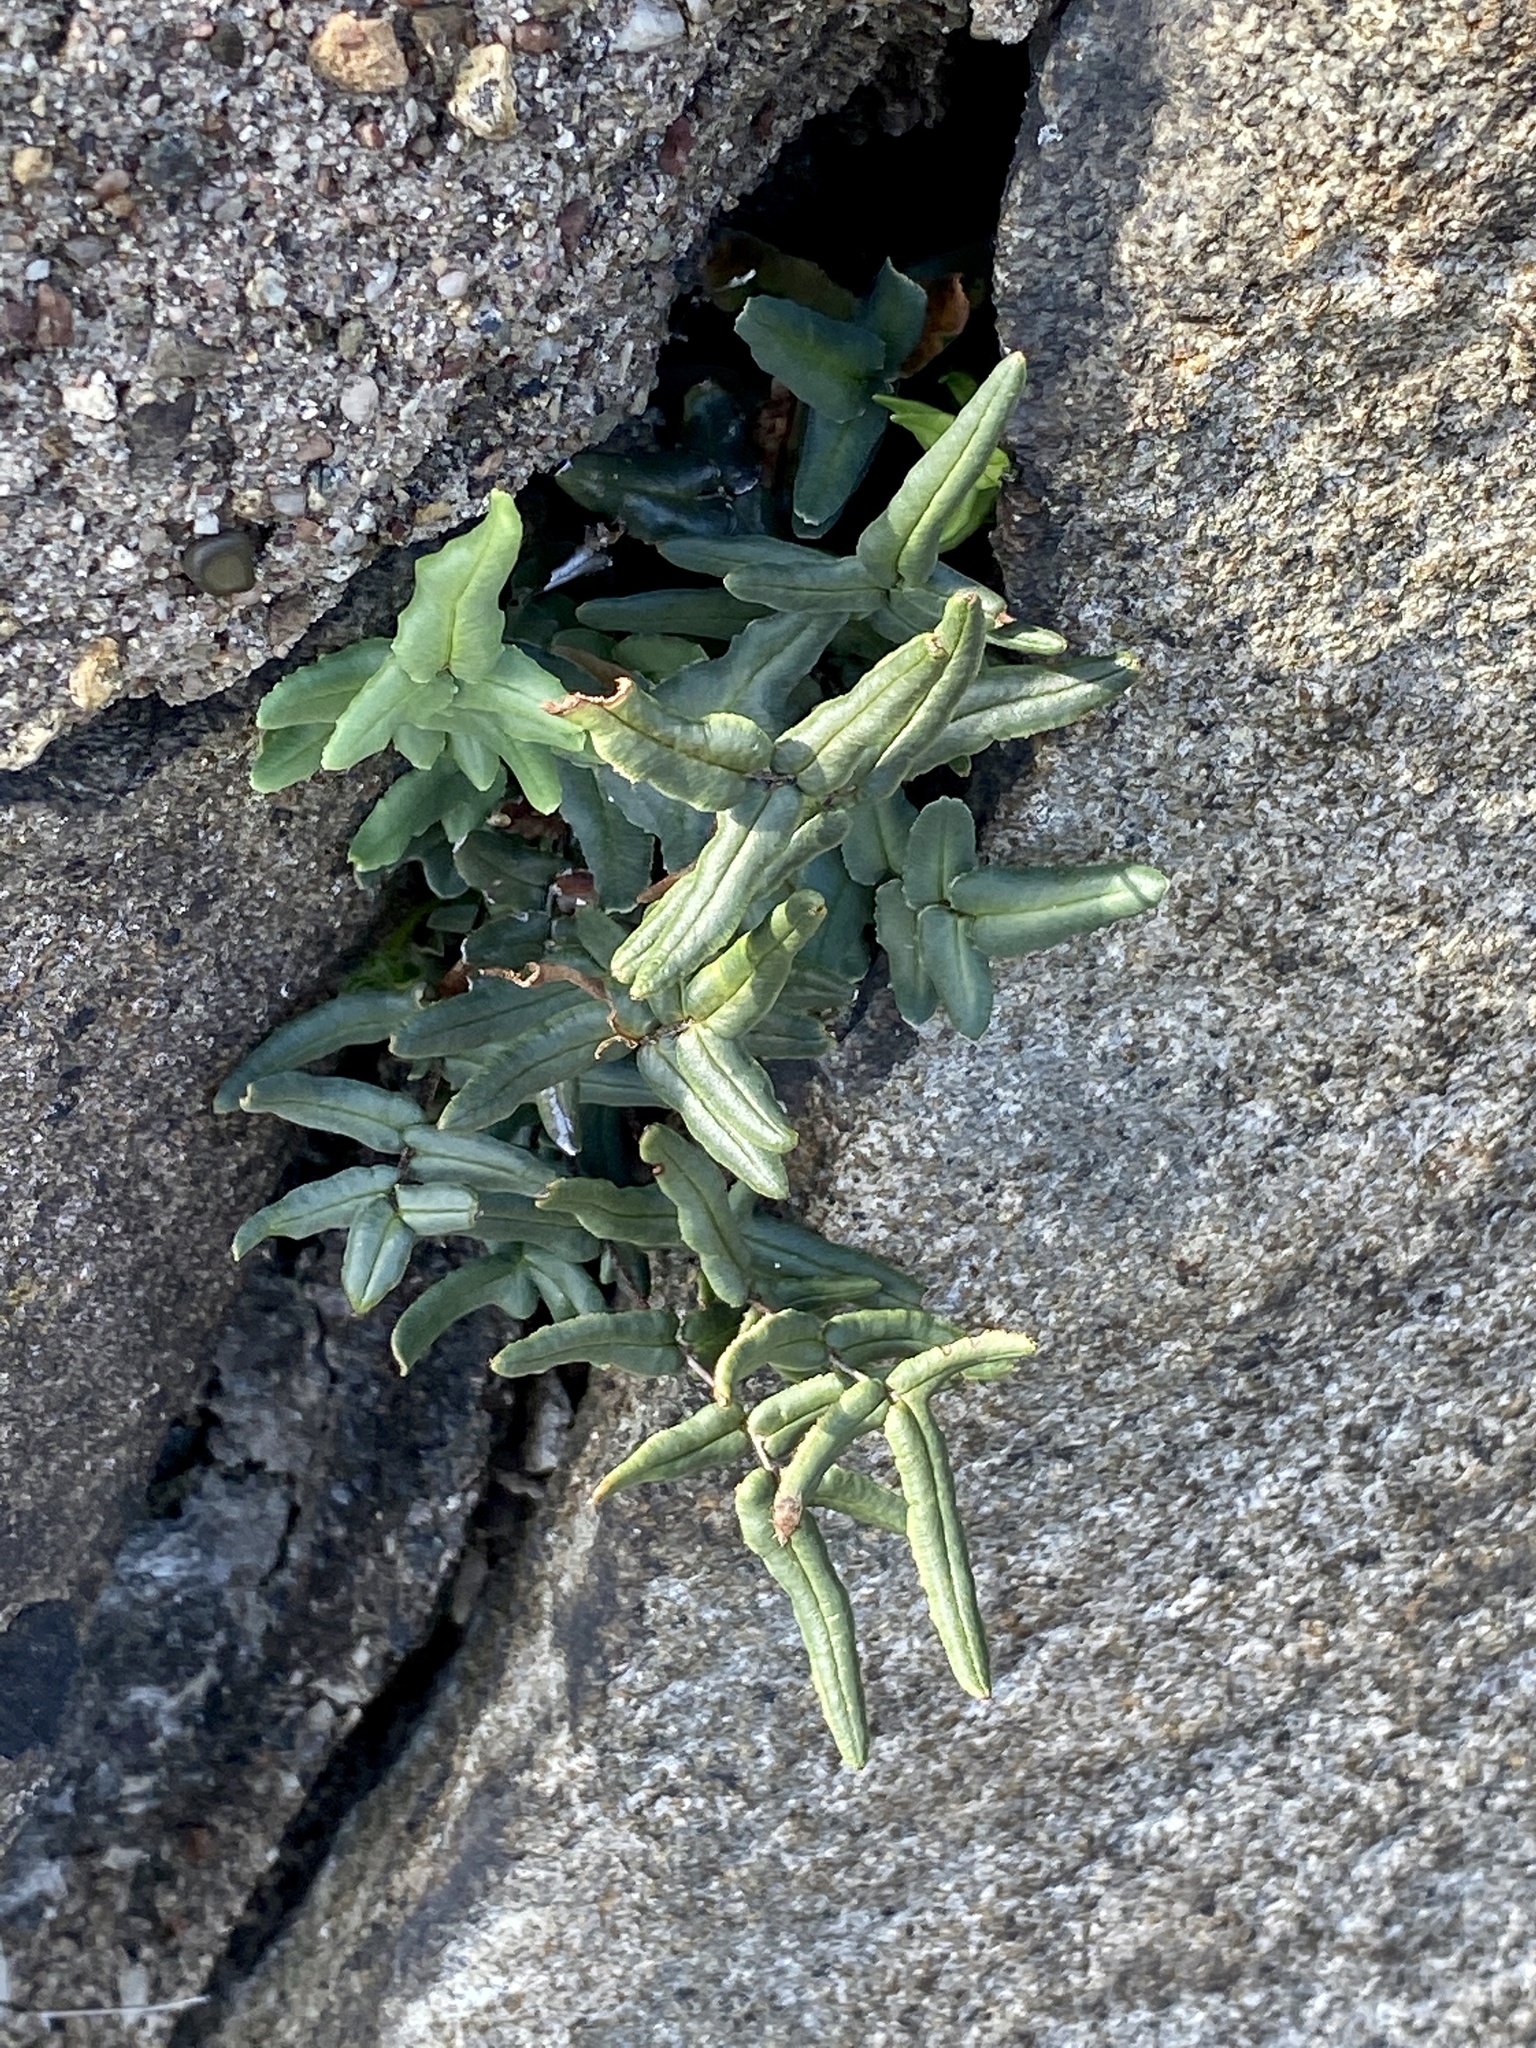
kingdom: Plantae
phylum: Tracheophyta
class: Polypodiopsida
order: Polypodiales
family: Pteridaceae
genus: Pellaea
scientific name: Pellaea atropurpurea
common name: Hairy cliffbrake
